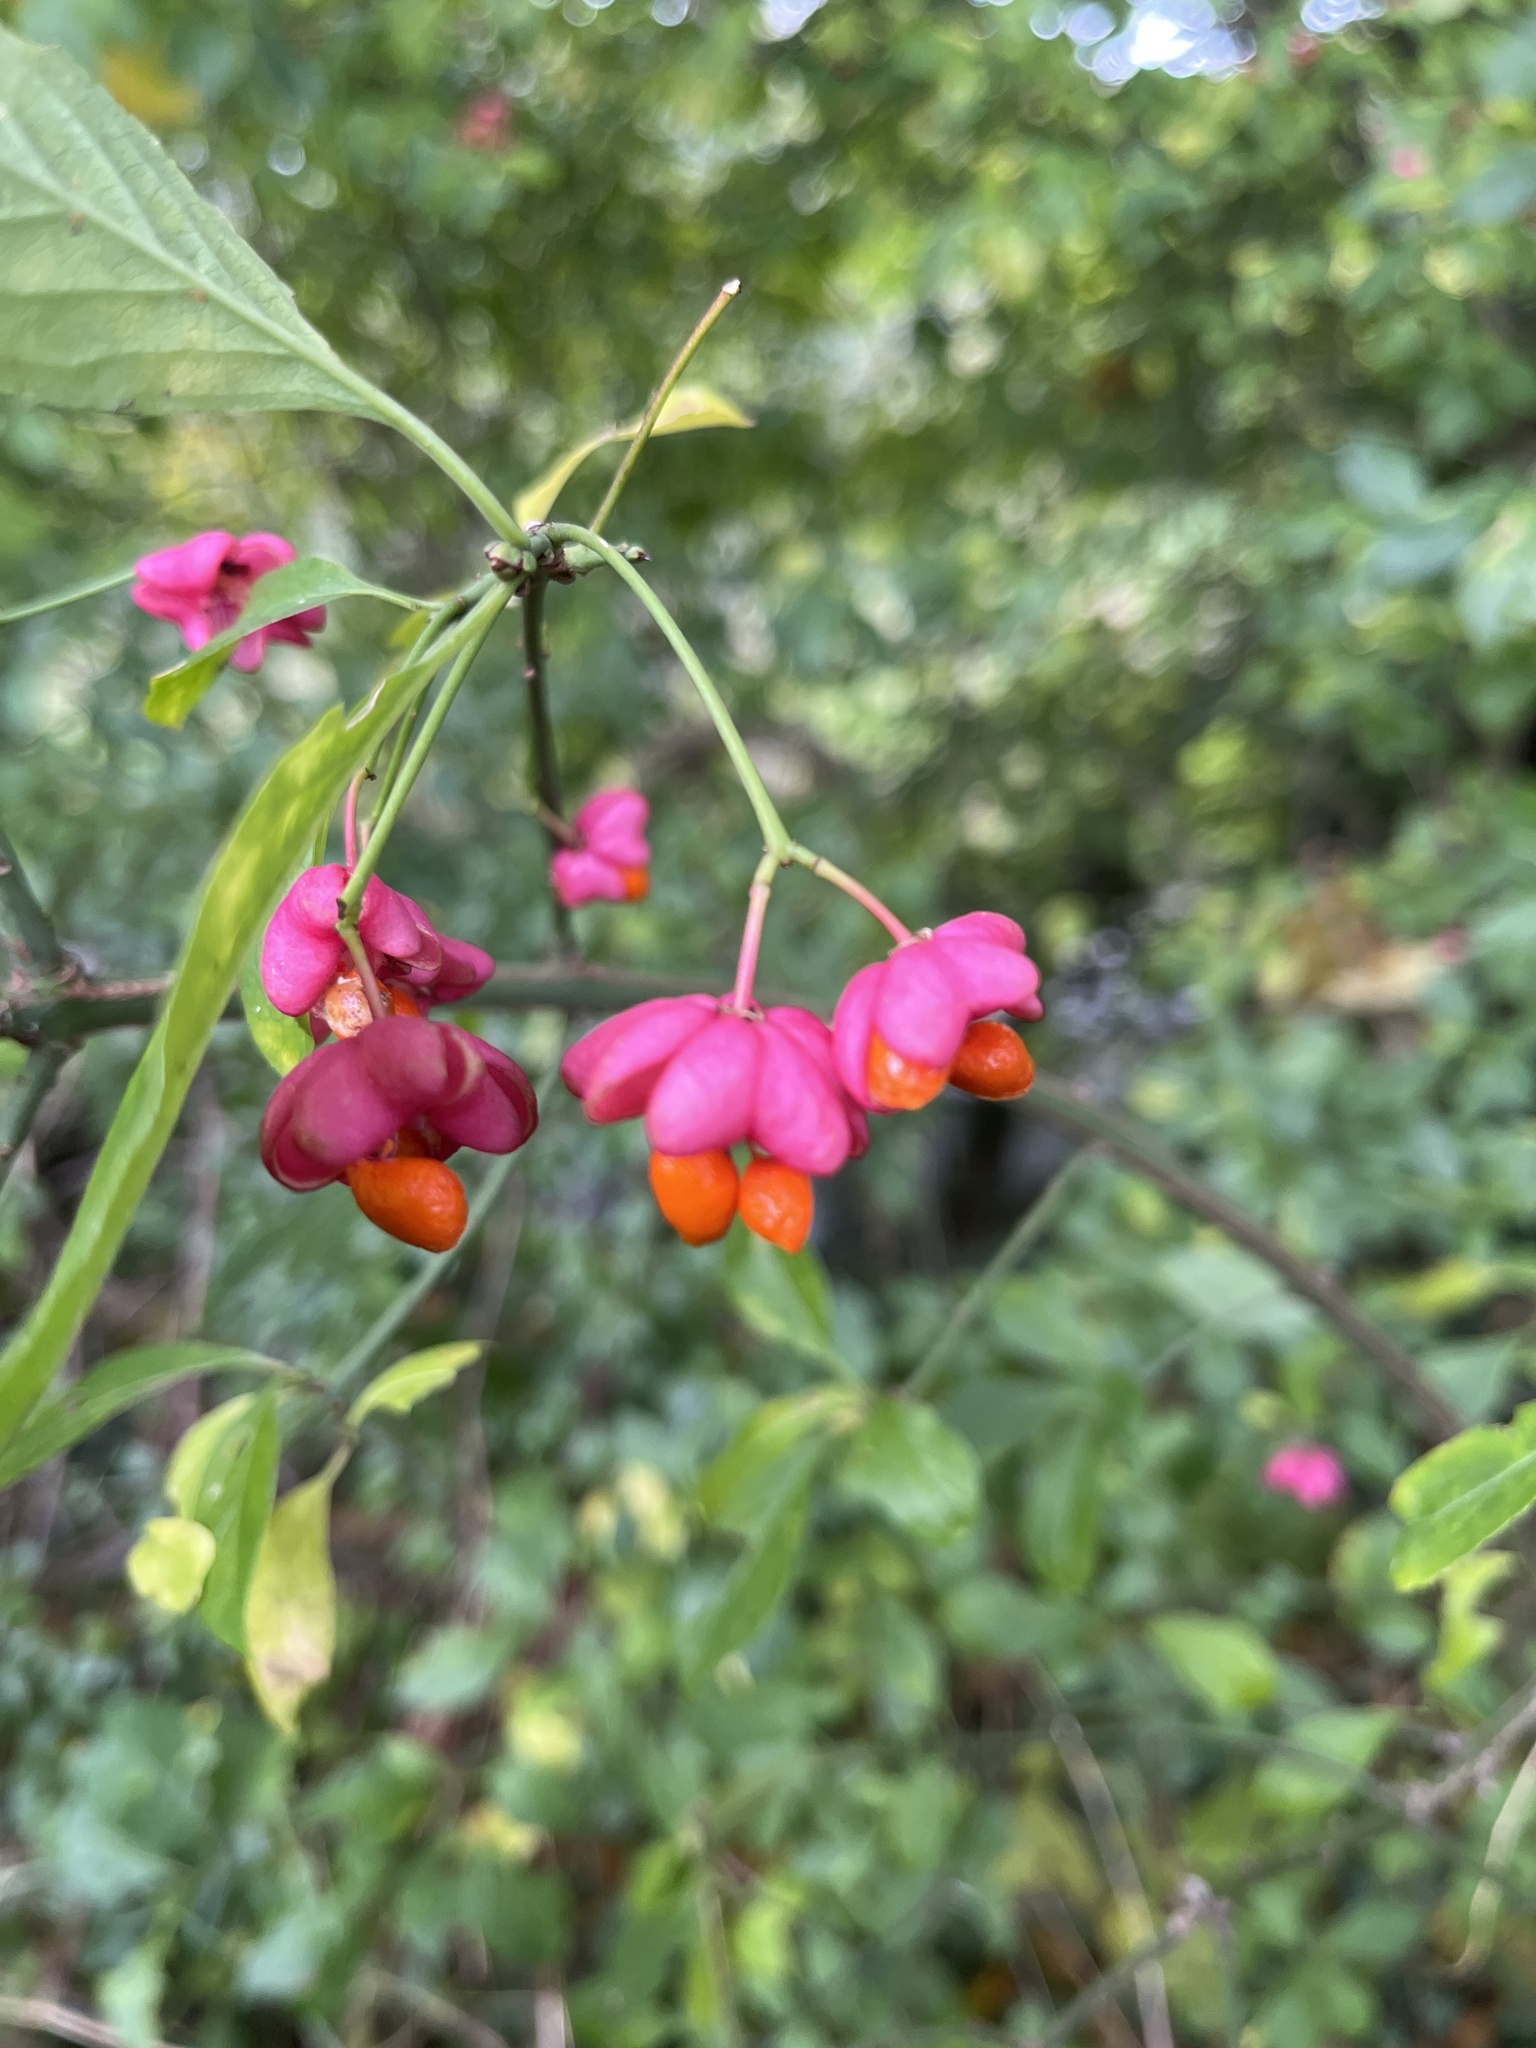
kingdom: Plantae
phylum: Tracheophyta
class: Magnoliopsida
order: Celastrales
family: Celastraceae
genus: Euonymus
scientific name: Euonymus europaeus
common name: Spindle
